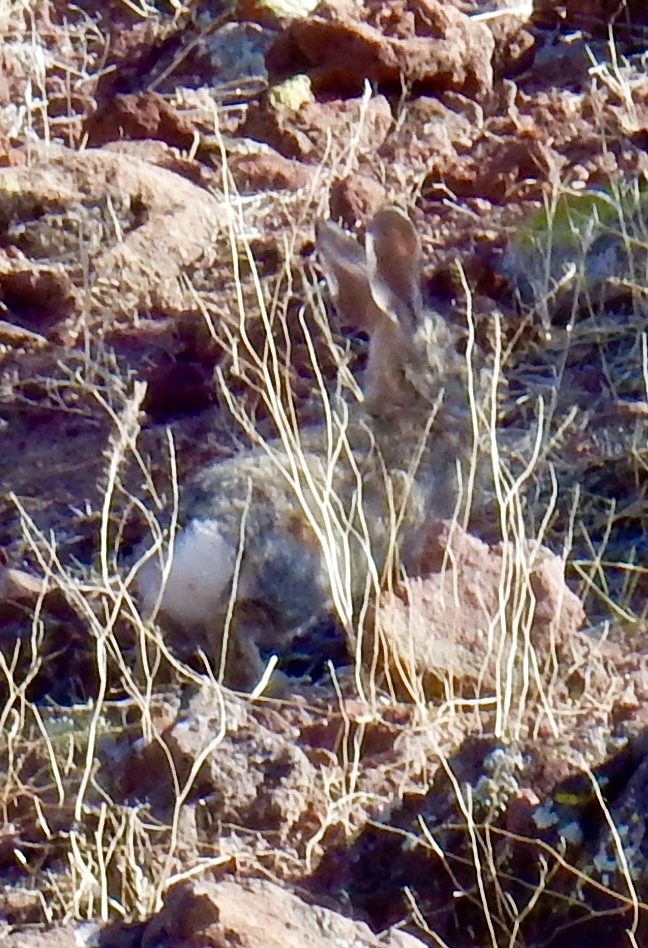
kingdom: Animalia
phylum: Chordata
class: Mammalia
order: Lagomorpha
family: Leporidae
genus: Sylvilagus
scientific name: Sylvilagus audubonii
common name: Desert cottontail
